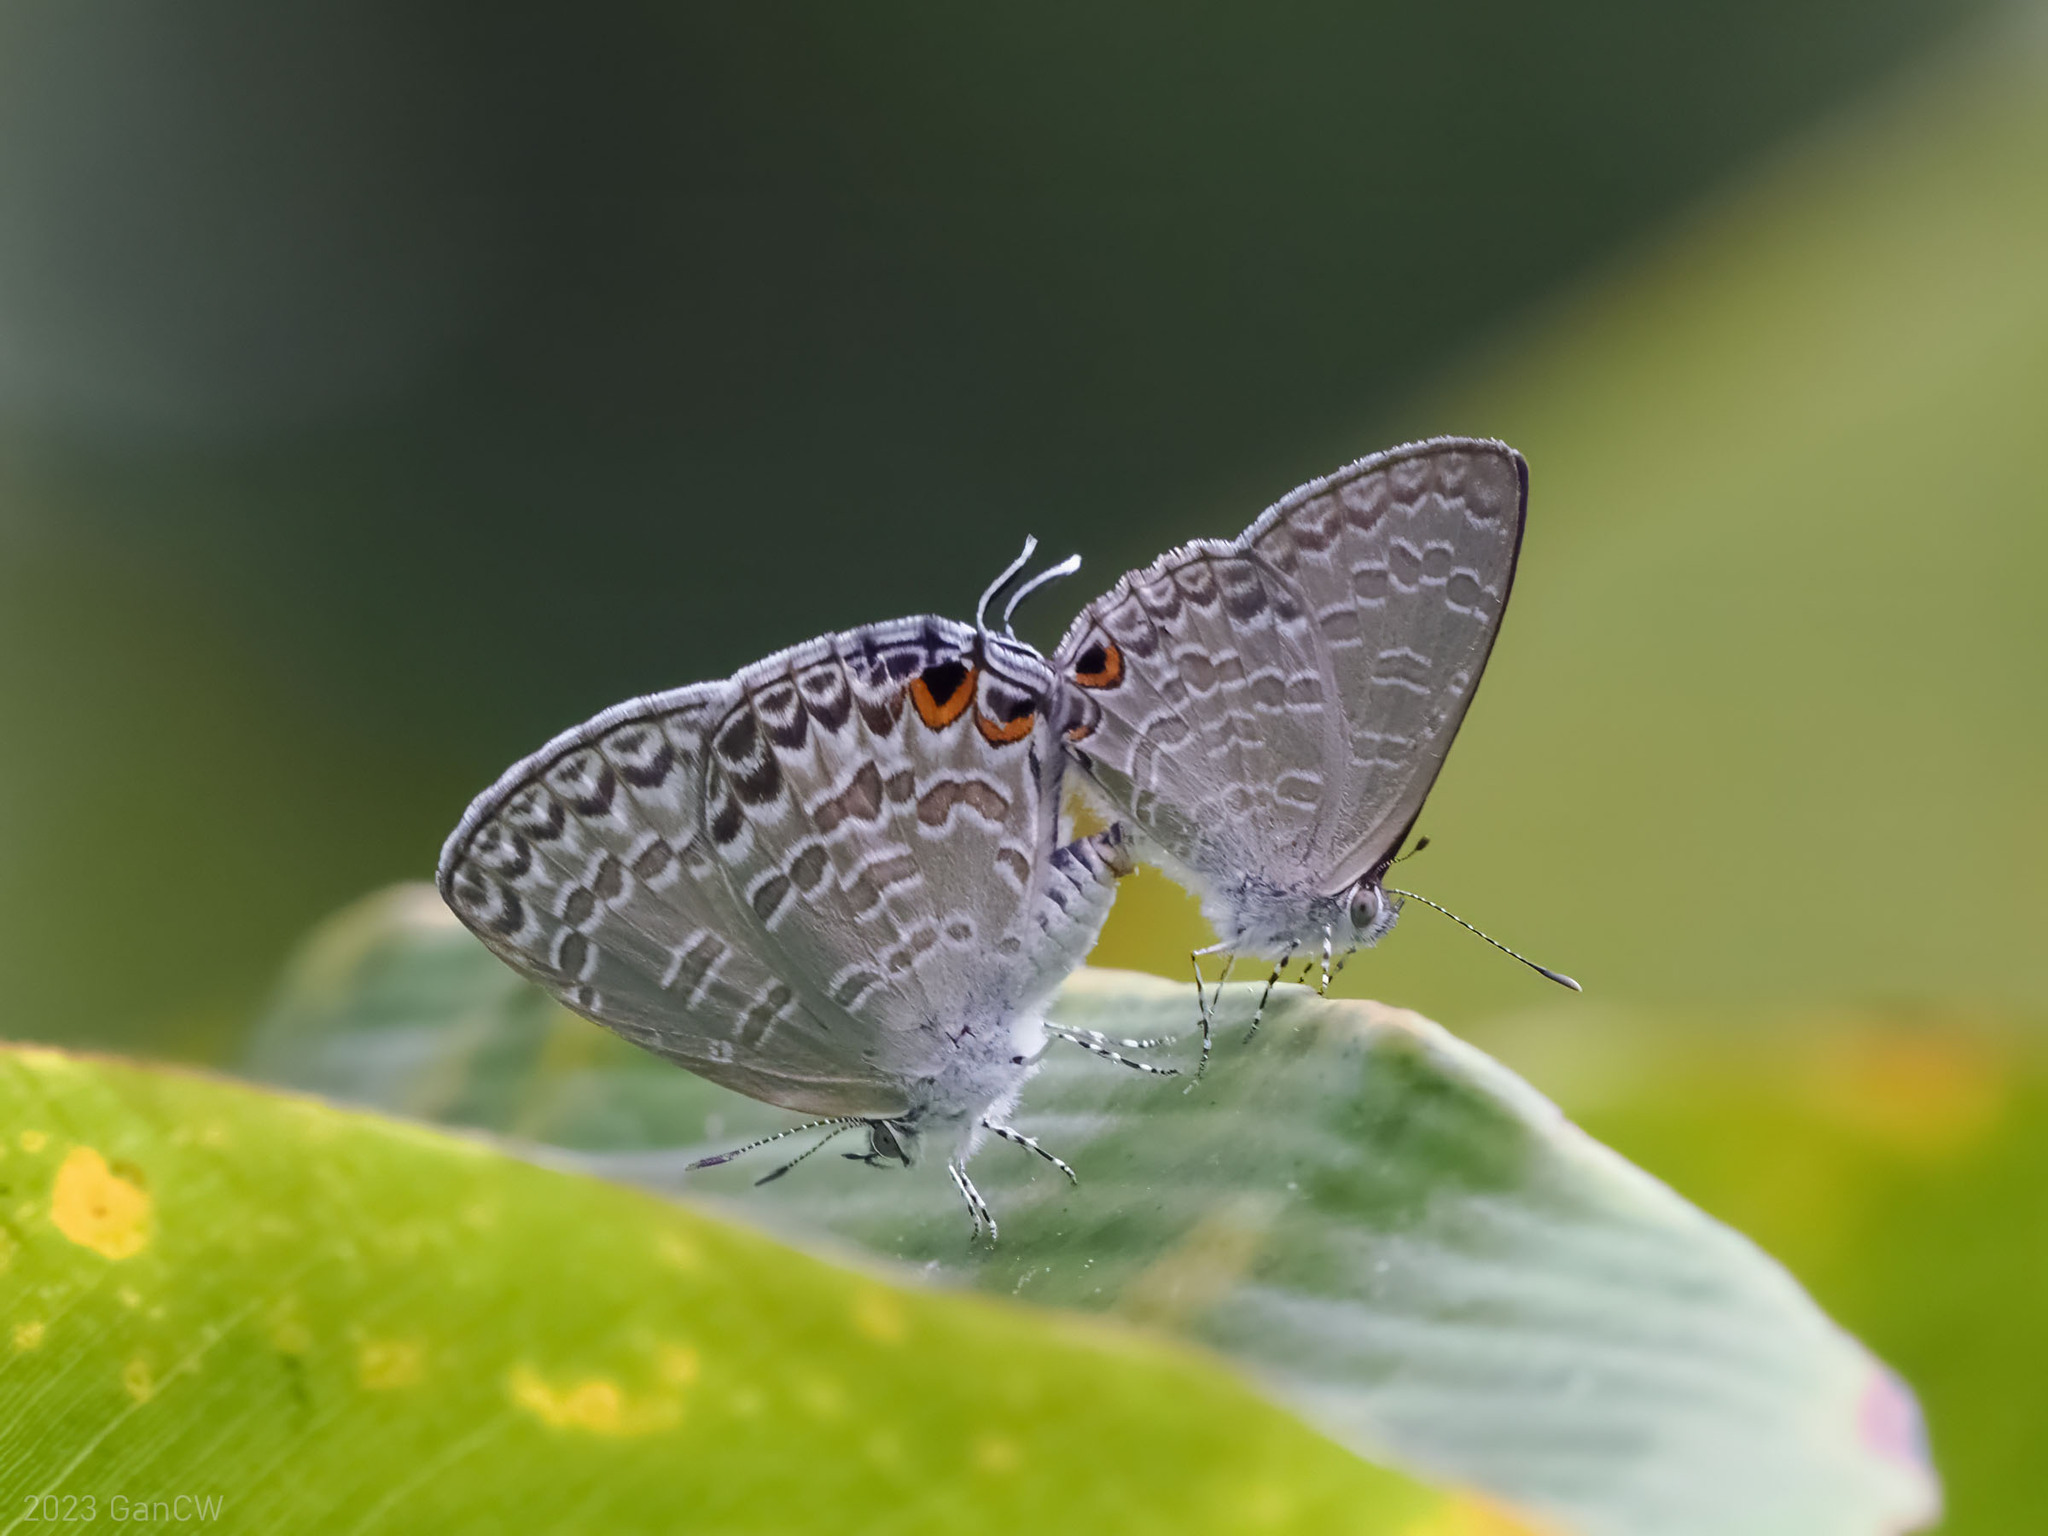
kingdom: Animalia
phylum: Arthropoda
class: Insecta
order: Lepidoptera
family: Lycaenidae
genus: Catopyrops
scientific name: Catopyrops ancyra
